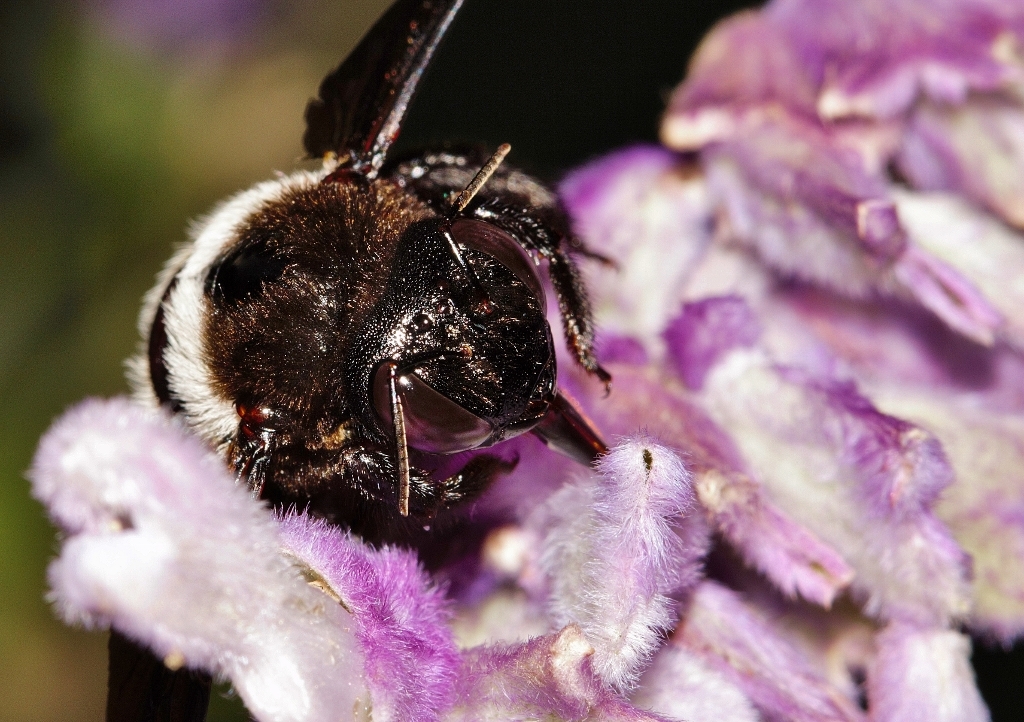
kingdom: Animalia
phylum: Arthropoda
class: Insecta
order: Hymenoptera
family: Apidae
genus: Xylocopa
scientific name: Xylocopa caffra
